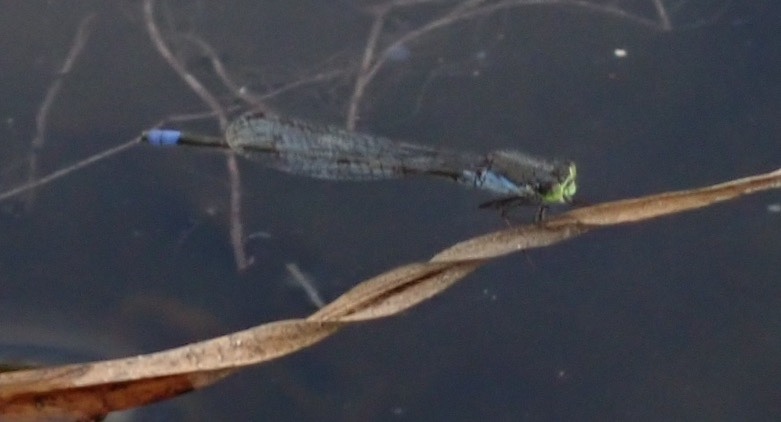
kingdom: Animalia
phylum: Arthropoda
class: Insecta
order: Odonata
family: Coenagrionidae
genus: Pseudagrion
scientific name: Pseudagrion deningi
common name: Dening's sprite
